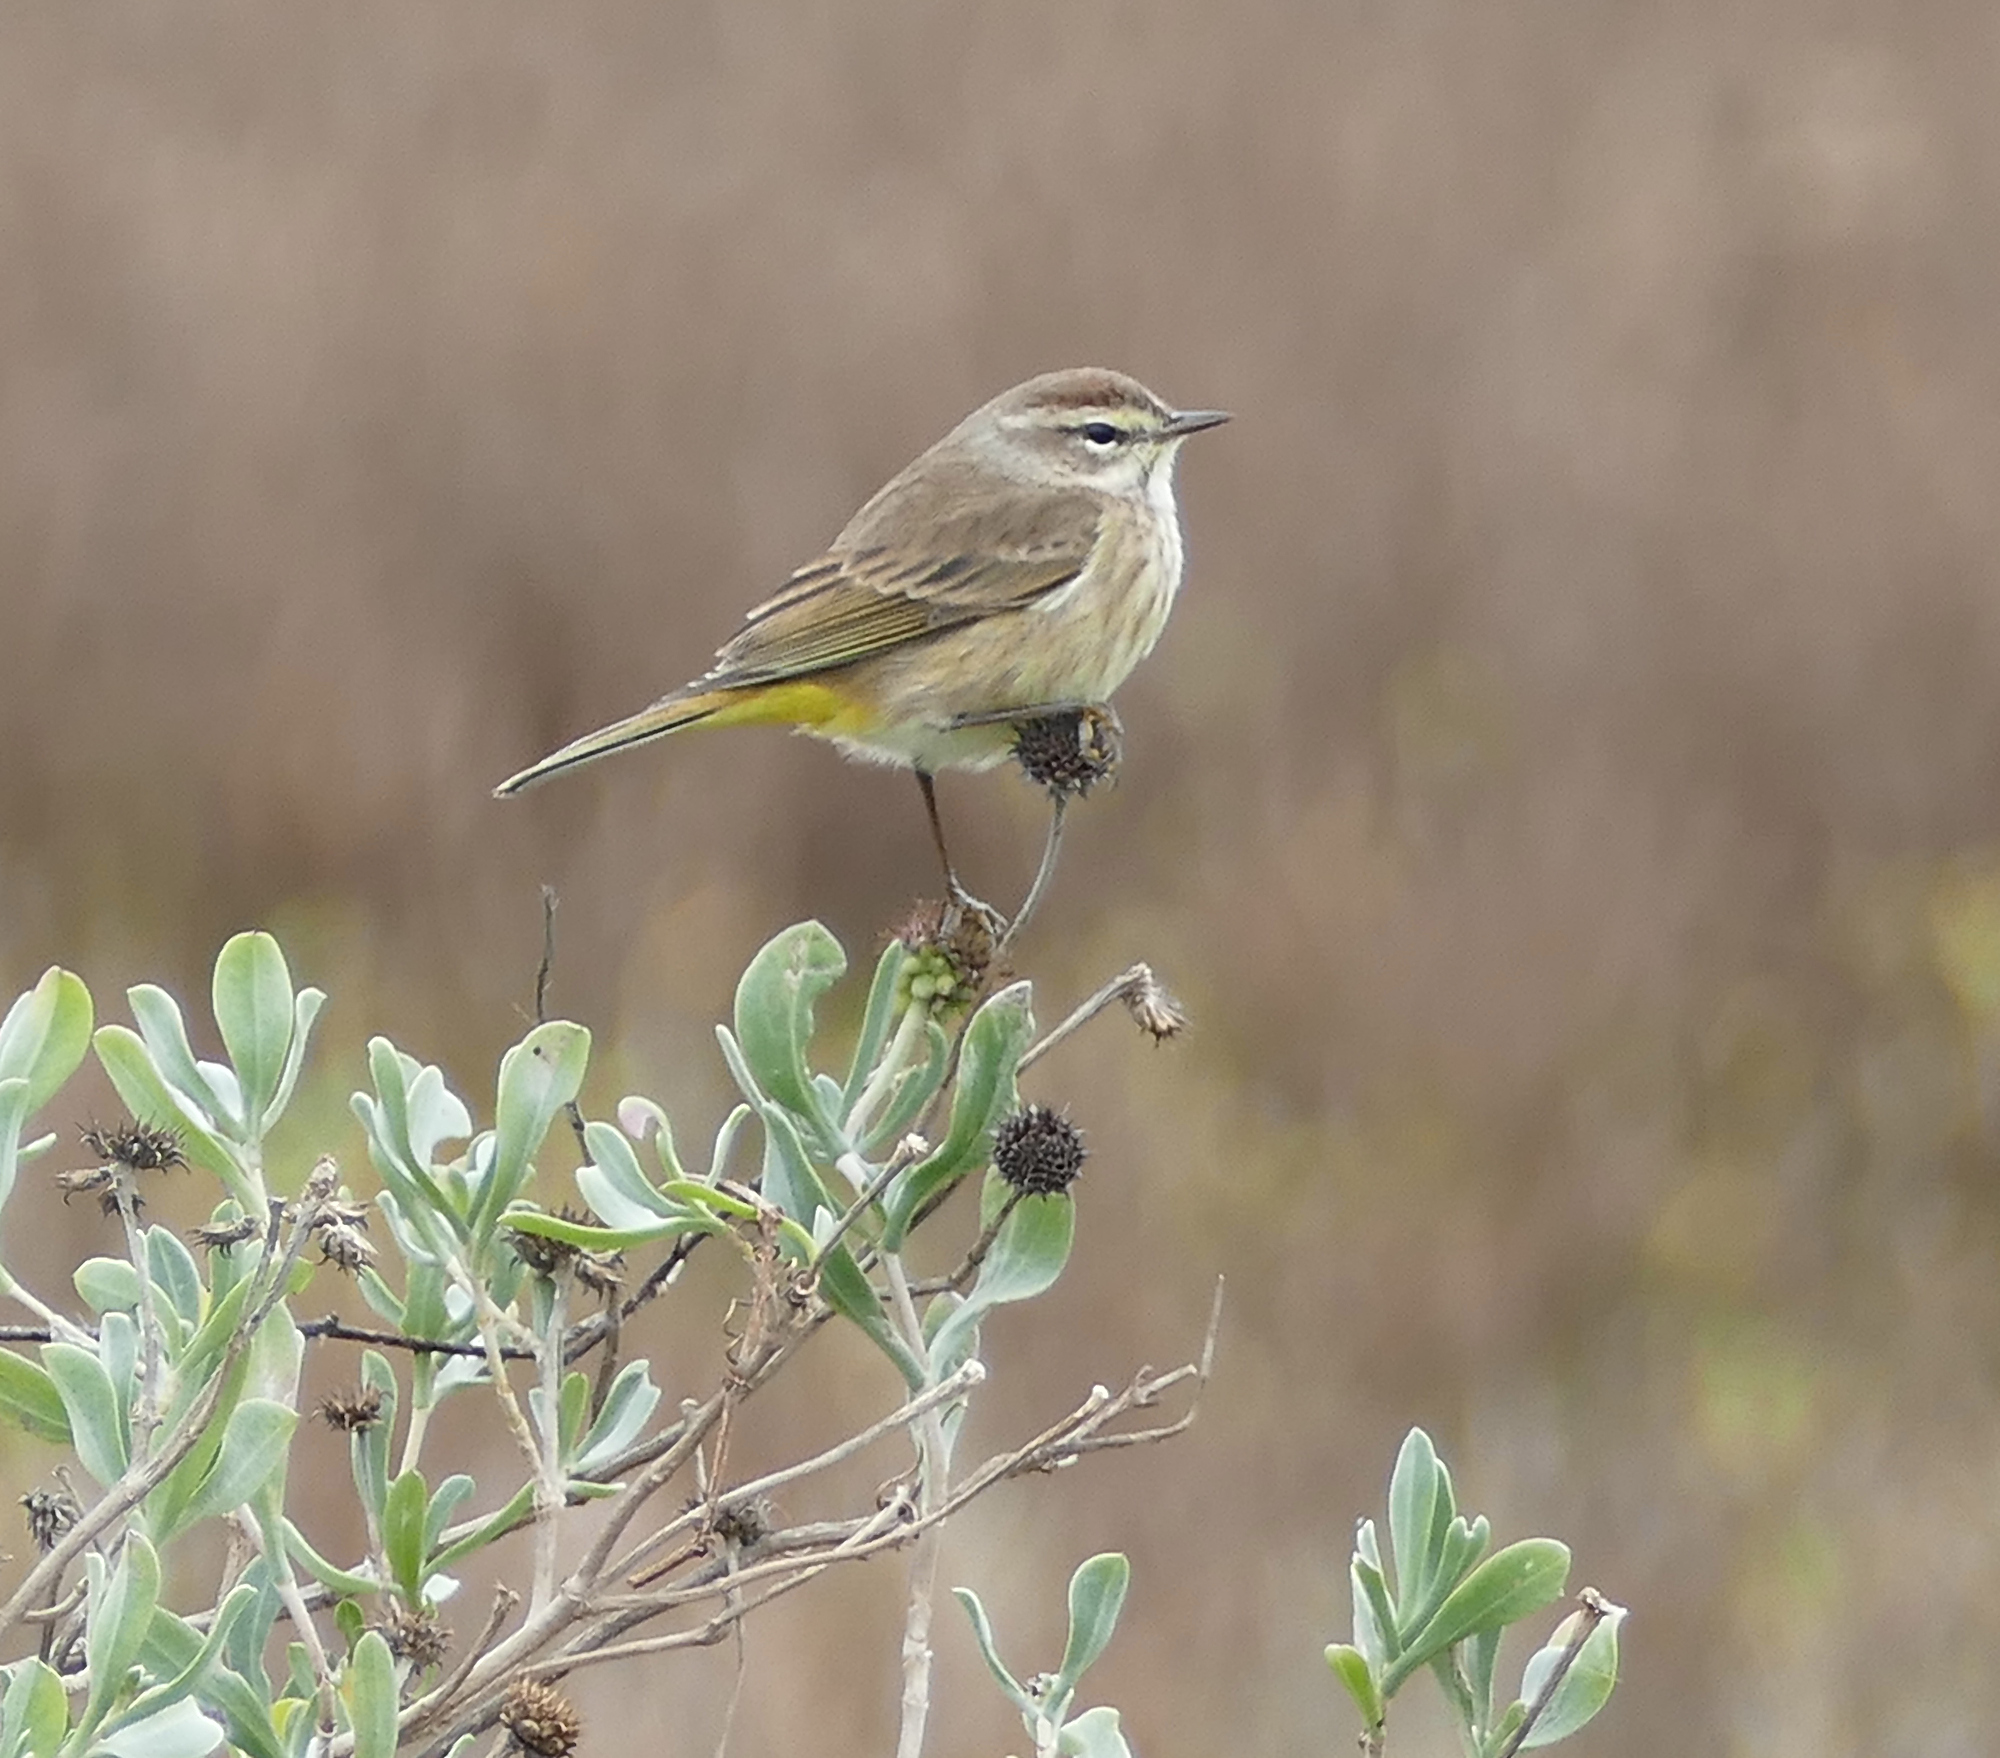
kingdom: Animalia
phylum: Chordata
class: Aves
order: Passeriformes
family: Parulidae
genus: Setophaga
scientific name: Setophaga palmarum
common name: Palm warbler
